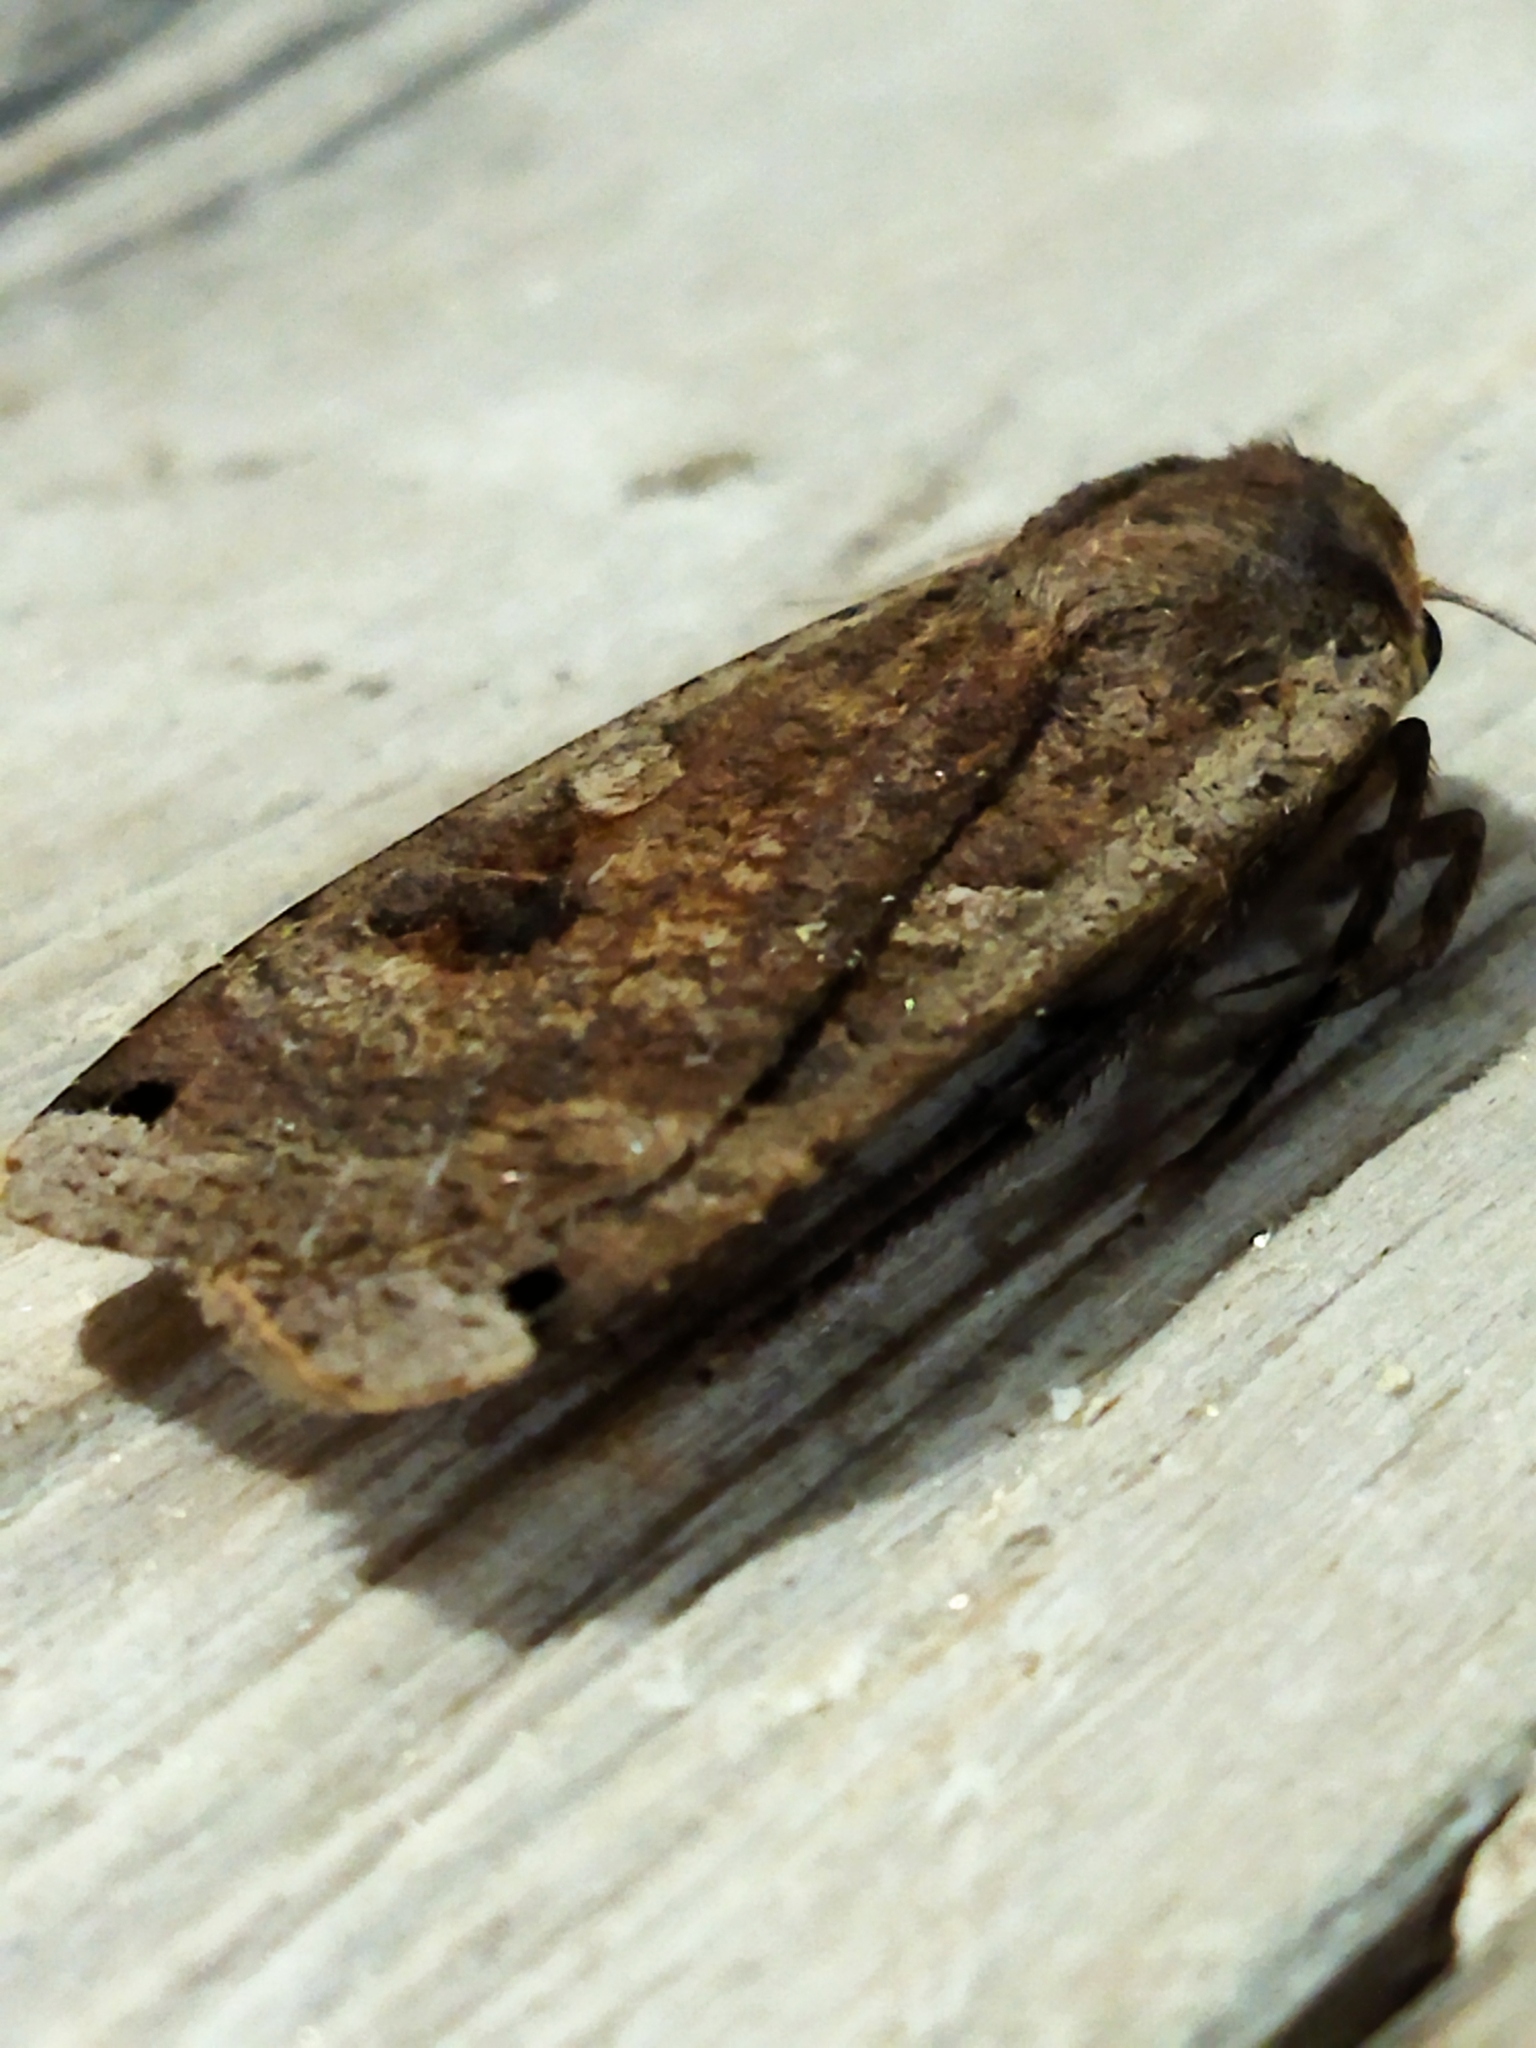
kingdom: Animalia
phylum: Arthropoda
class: Insecta
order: Lepidoptera
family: Noctuidae
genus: Noctua
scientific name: Noctua pronuba
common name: Large yellow underwing
